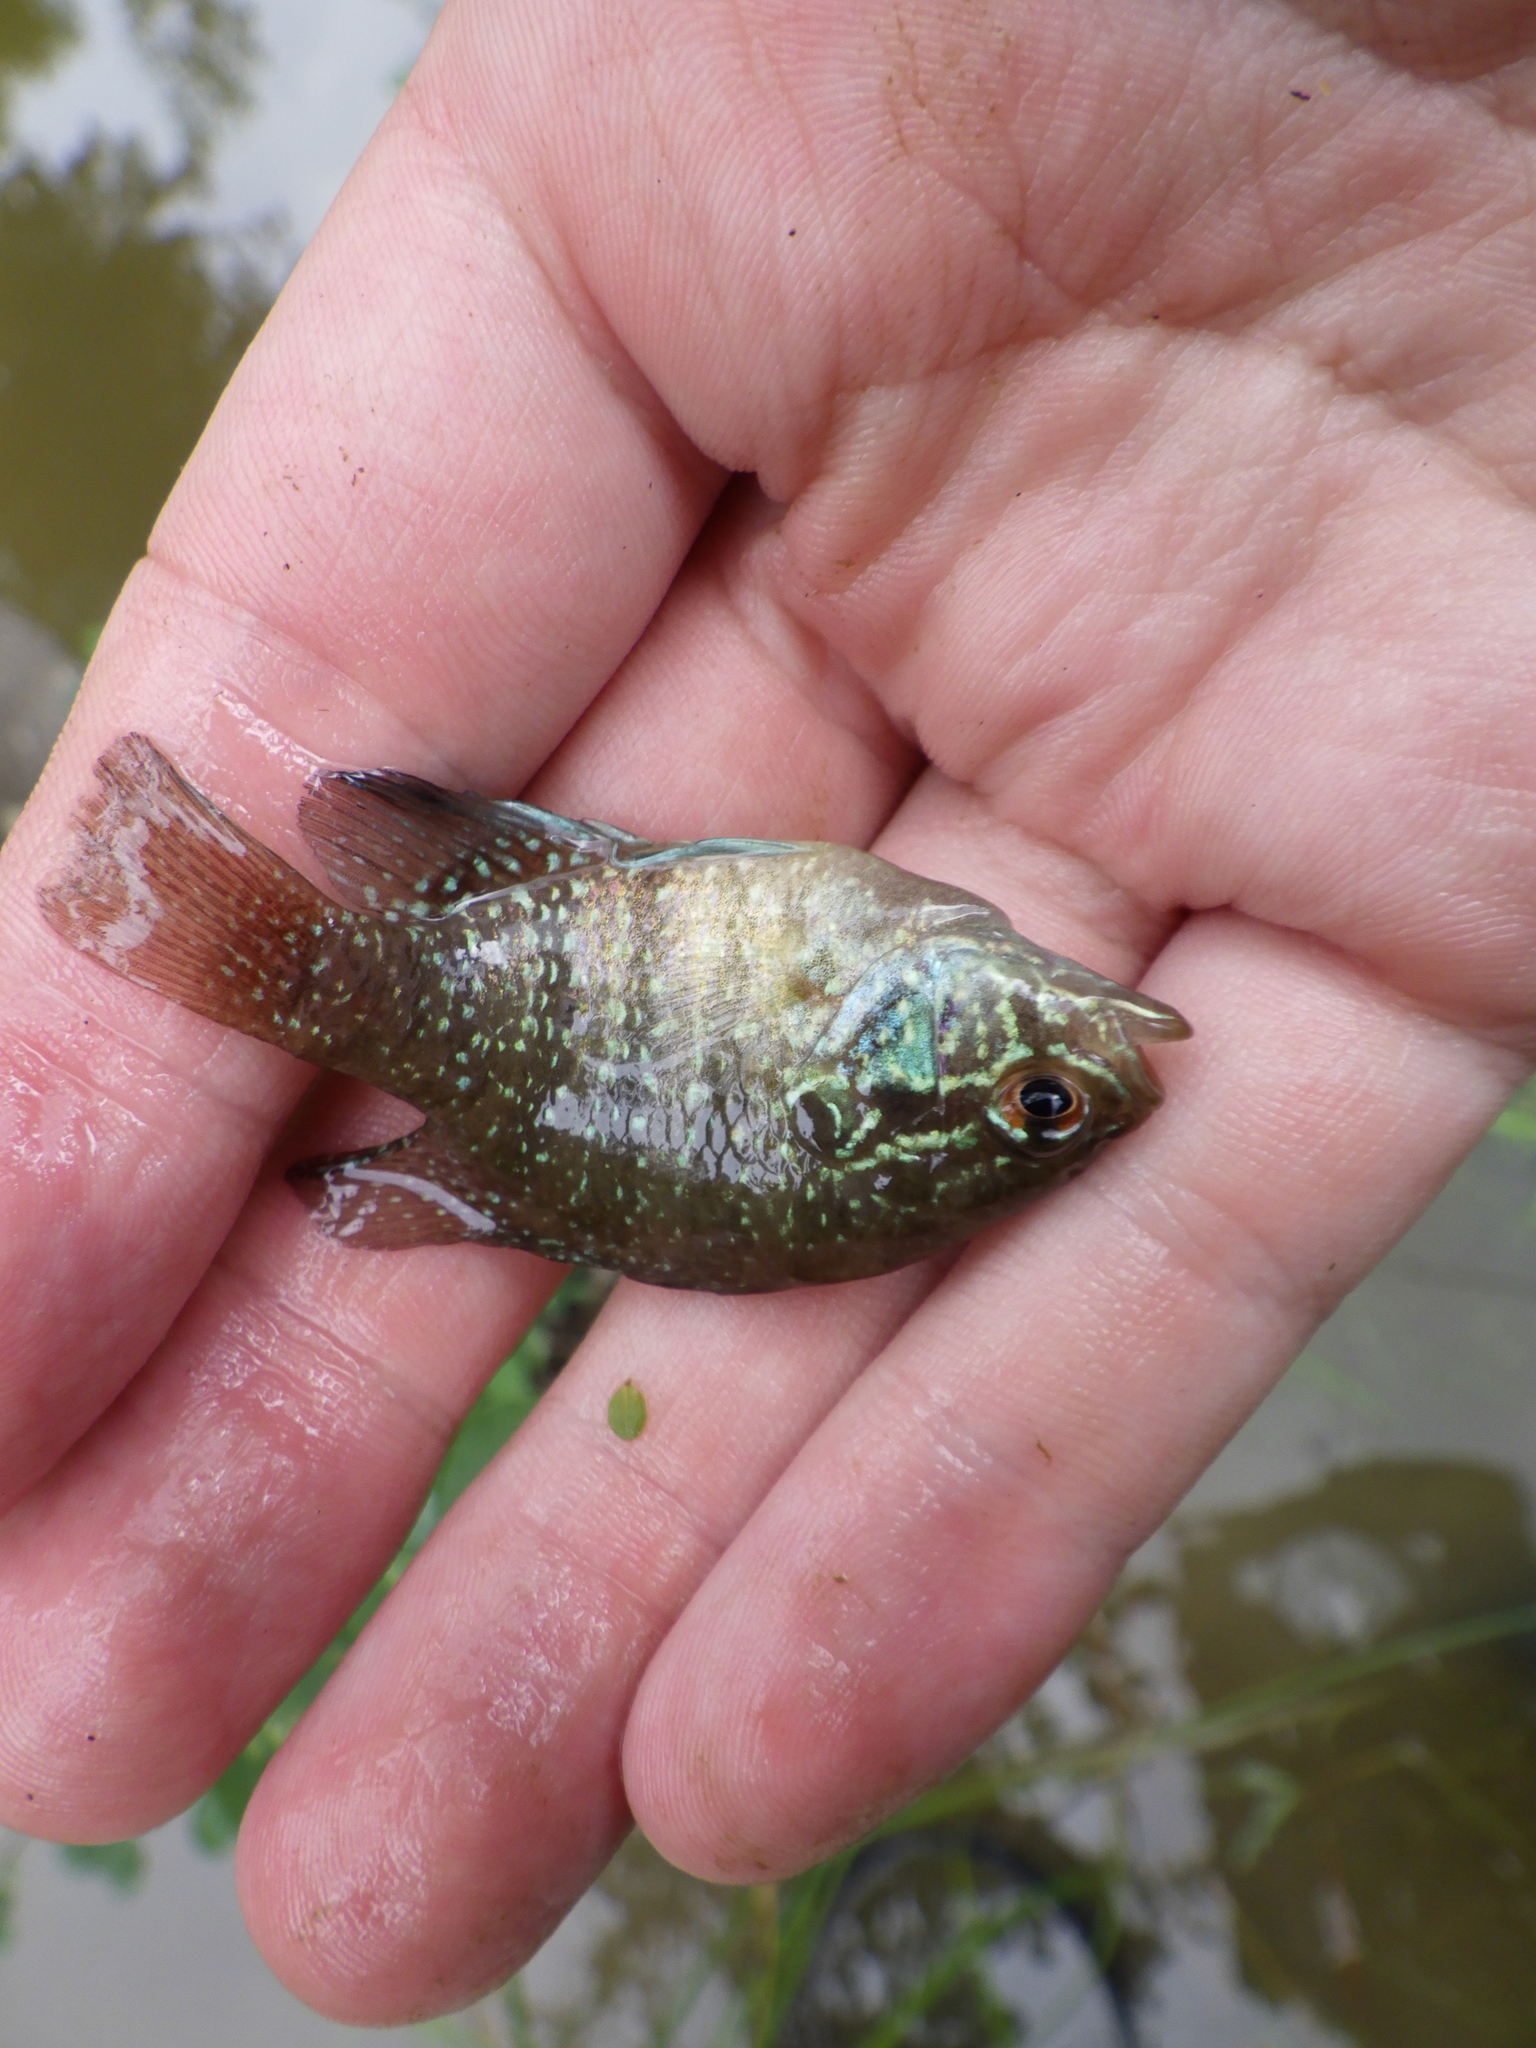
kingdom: Animalia
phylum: Chordata
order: Perciformes
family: Centrarchidae
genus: Enneacanthus
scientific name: Enneacanthus obesus
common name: Banded sunfish
